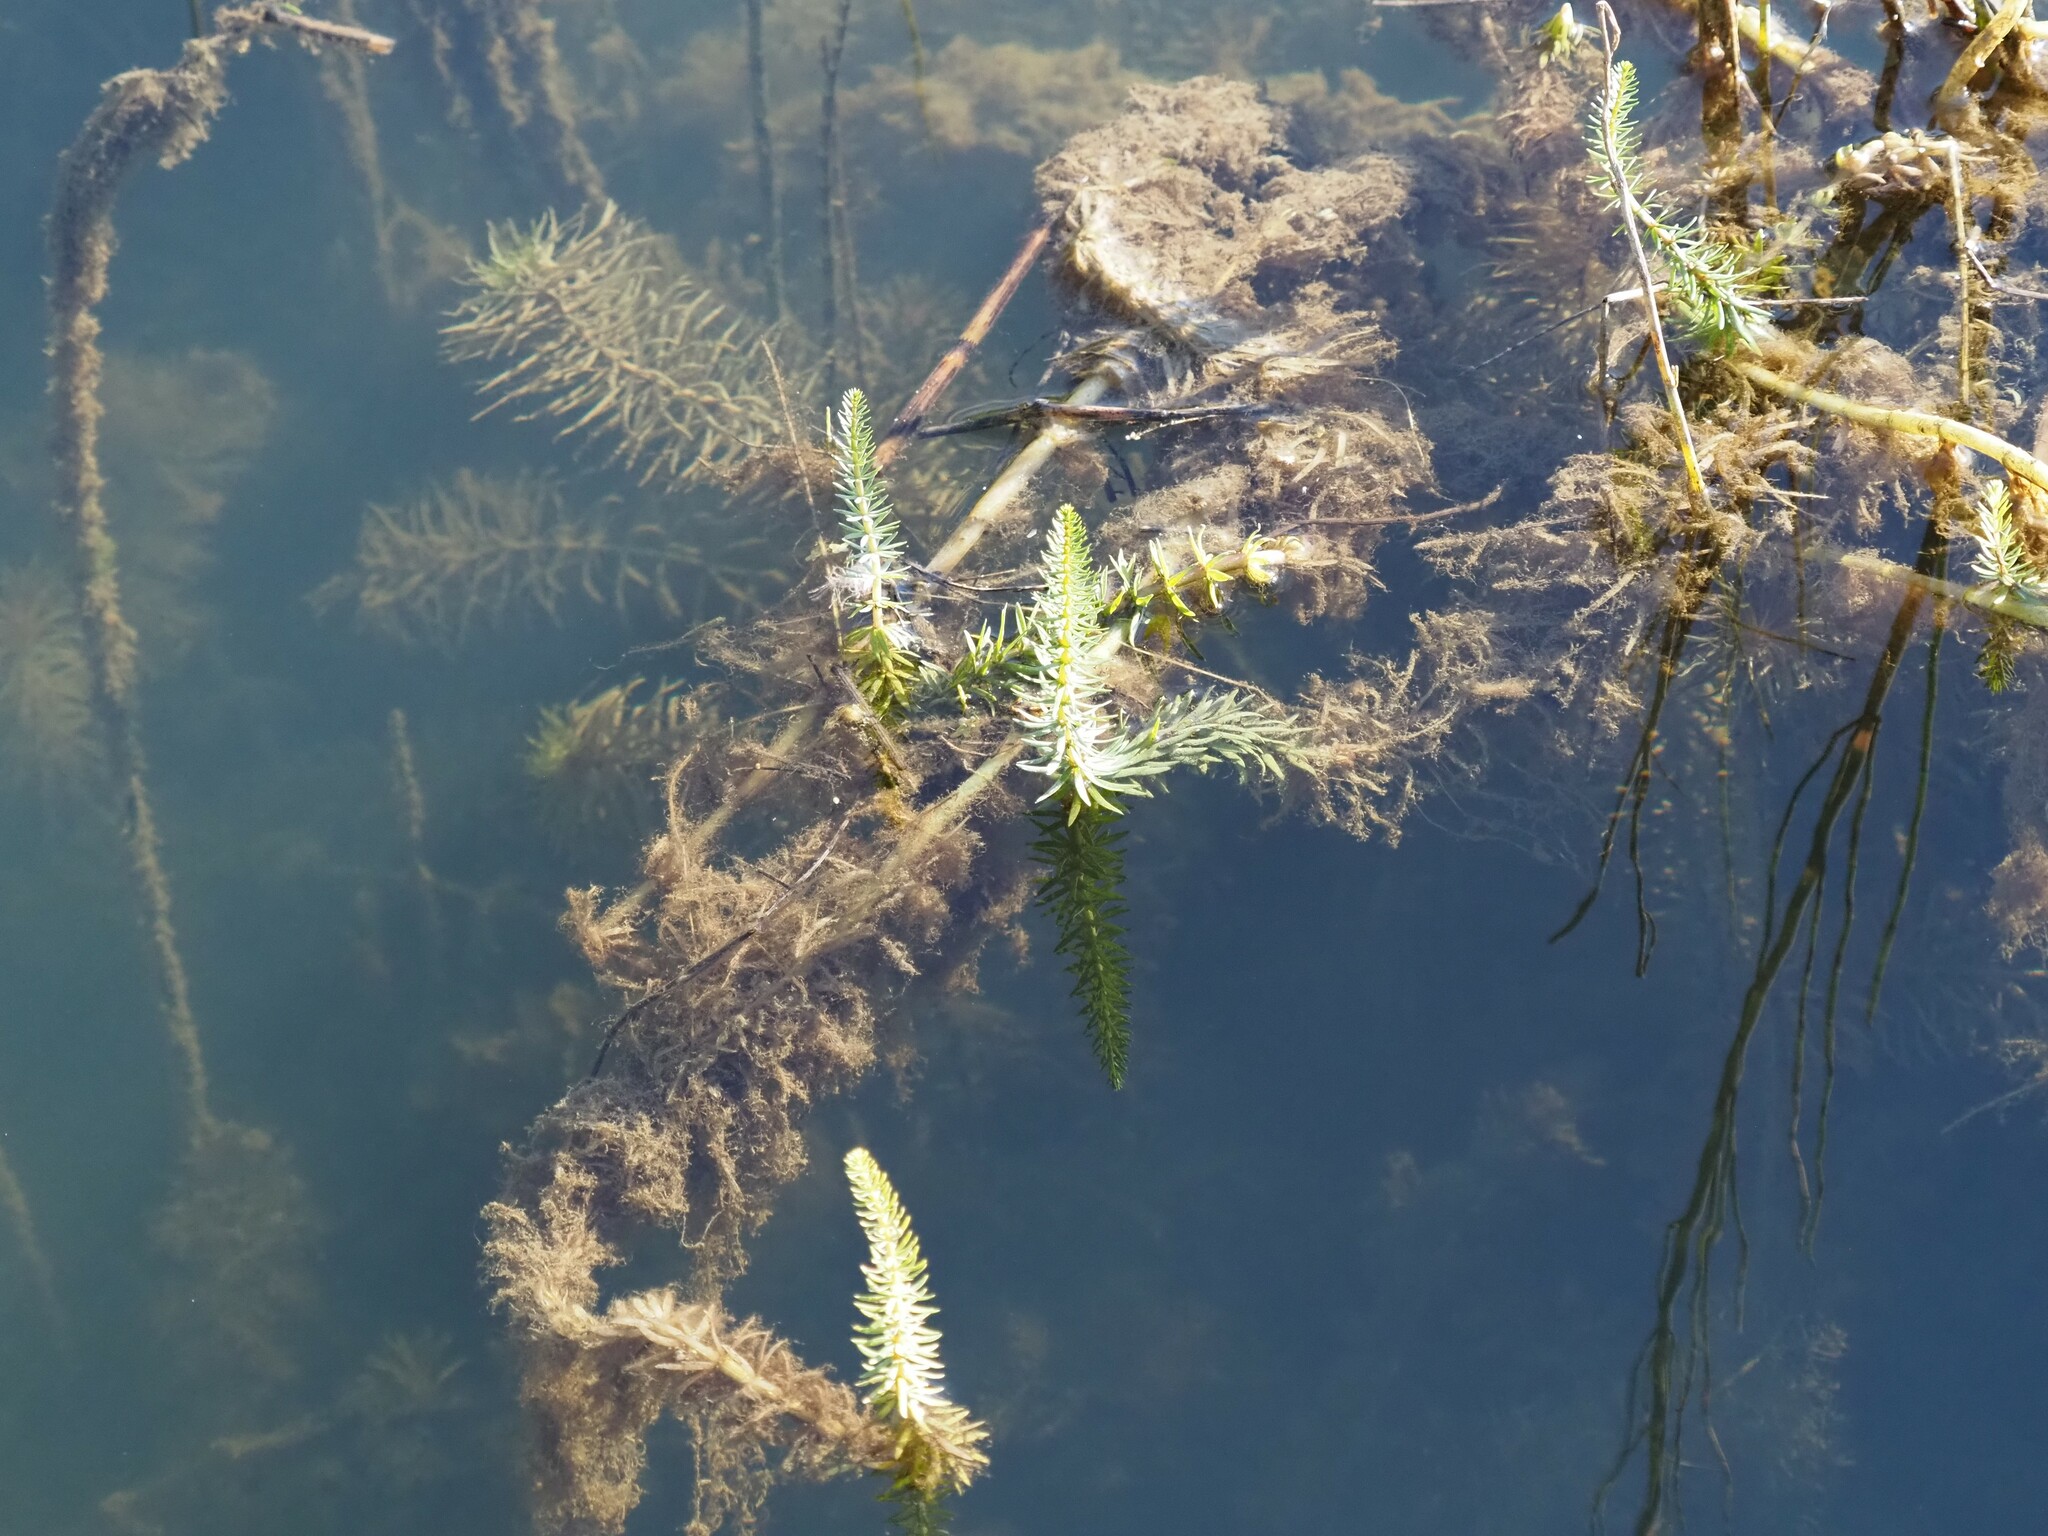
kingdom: Plantae
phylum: Tracheophyta
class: Magnoliopsida
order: Lamiales
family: Plantaginaceae
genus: Hippuris
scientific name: Hippuris vulgaris
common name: Mare's-tail
